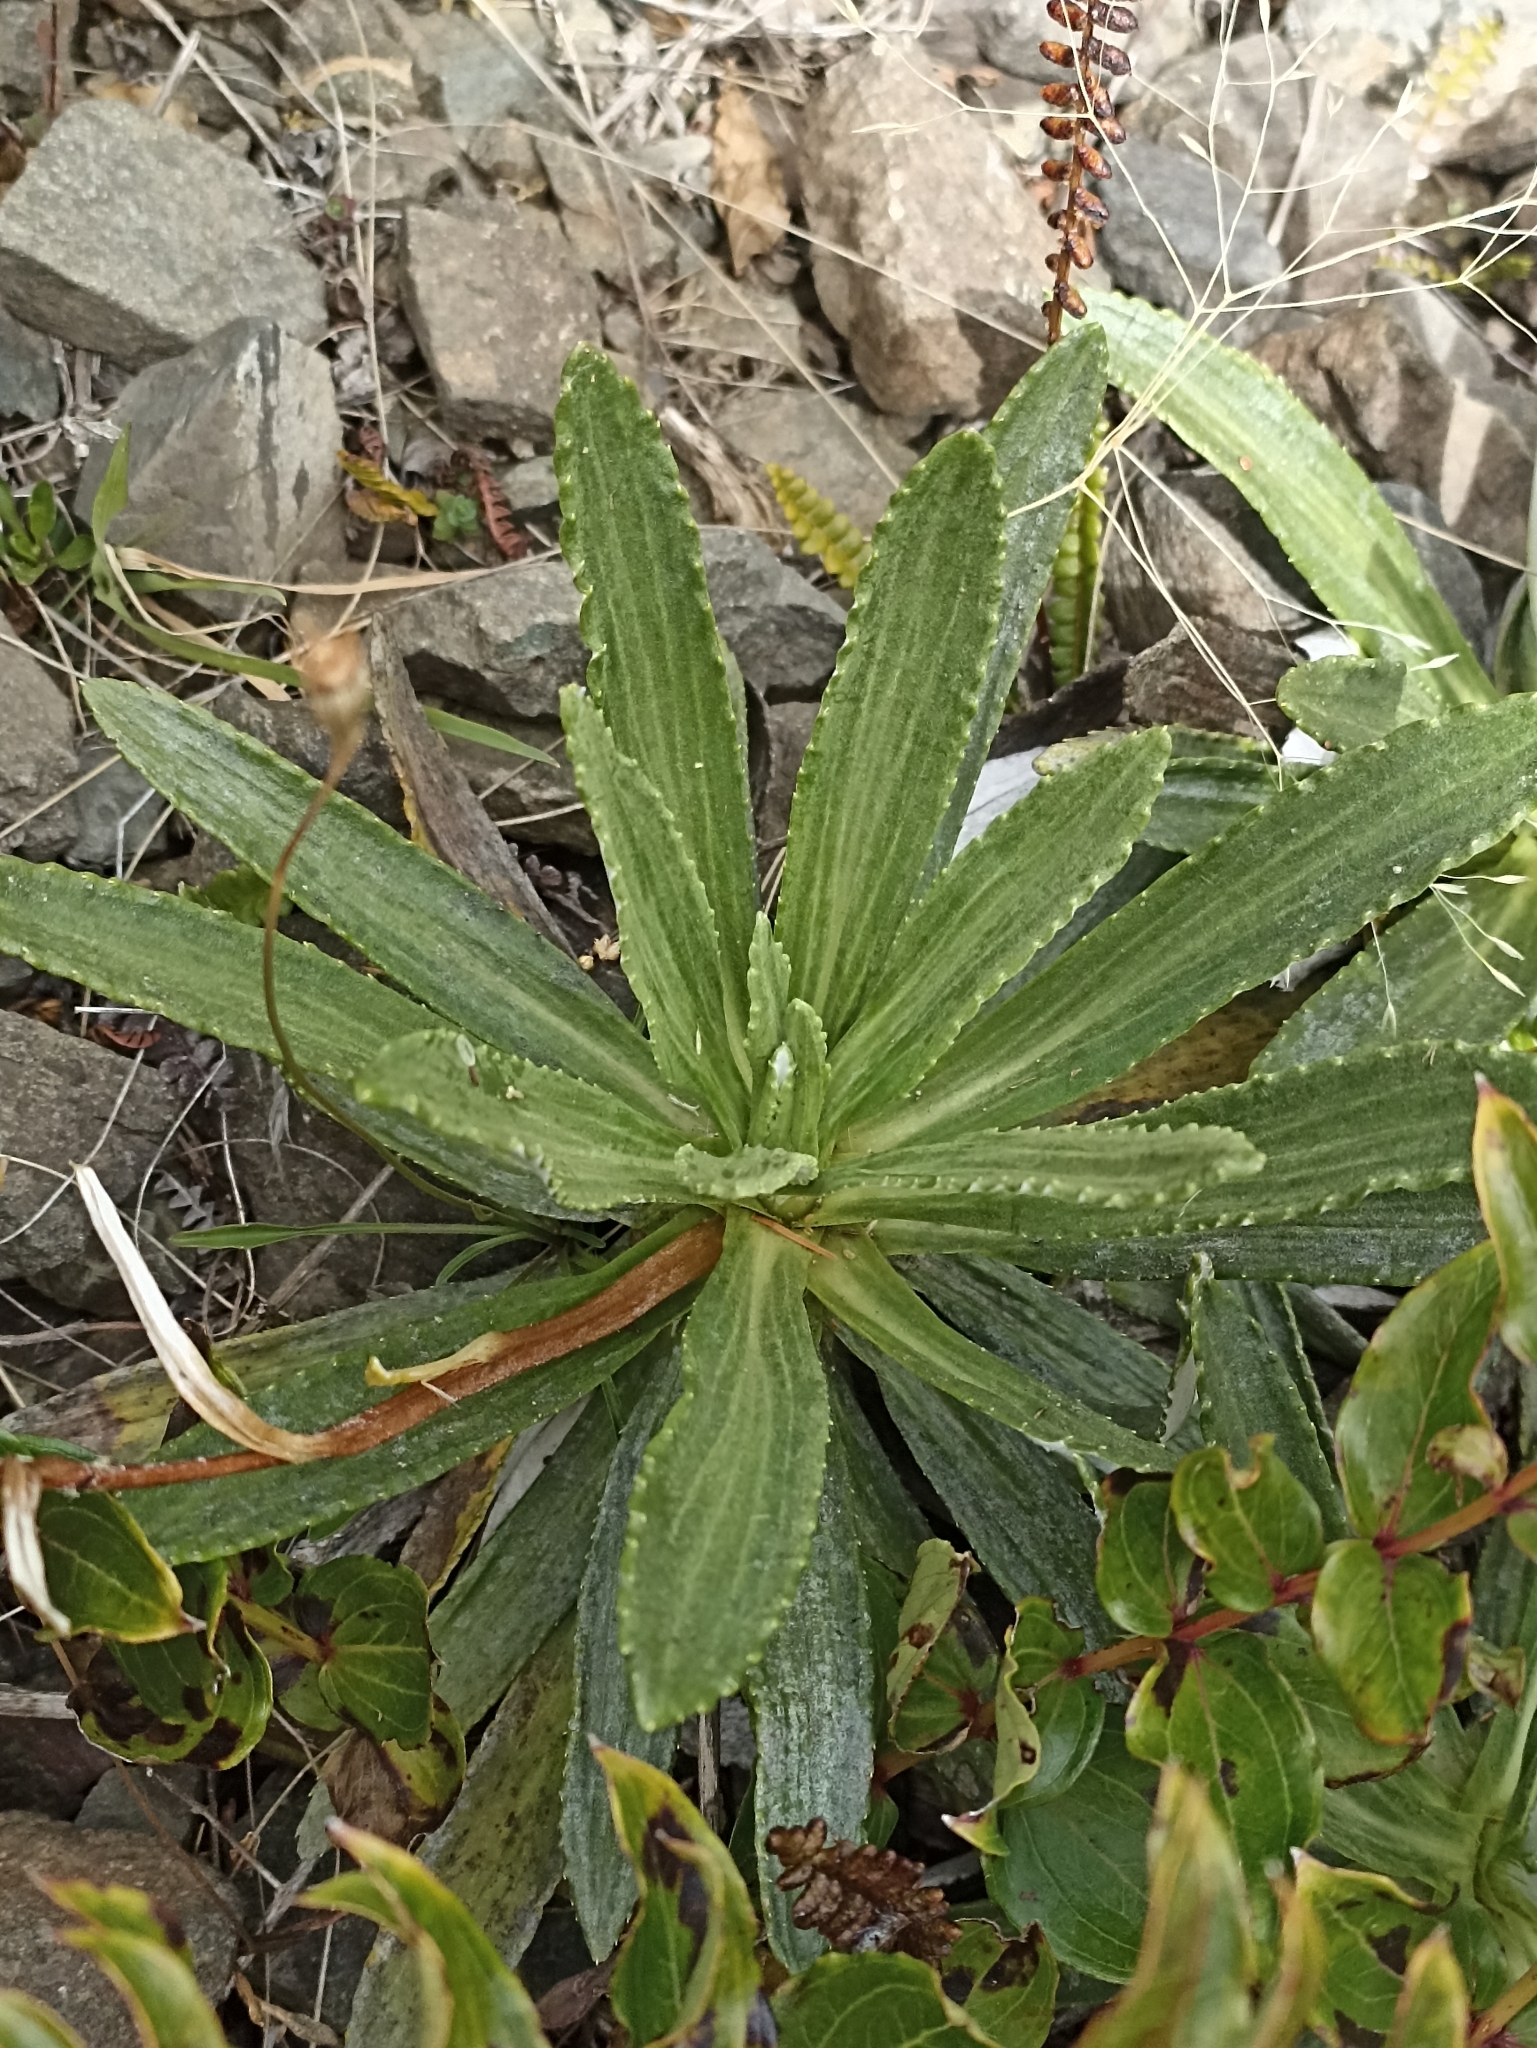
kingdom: Plantae
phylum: Tracheophyta
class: Magnoliopsida
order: Asterales
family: Asteraceae
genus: Celmisia
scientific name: Celmisia densiflora
